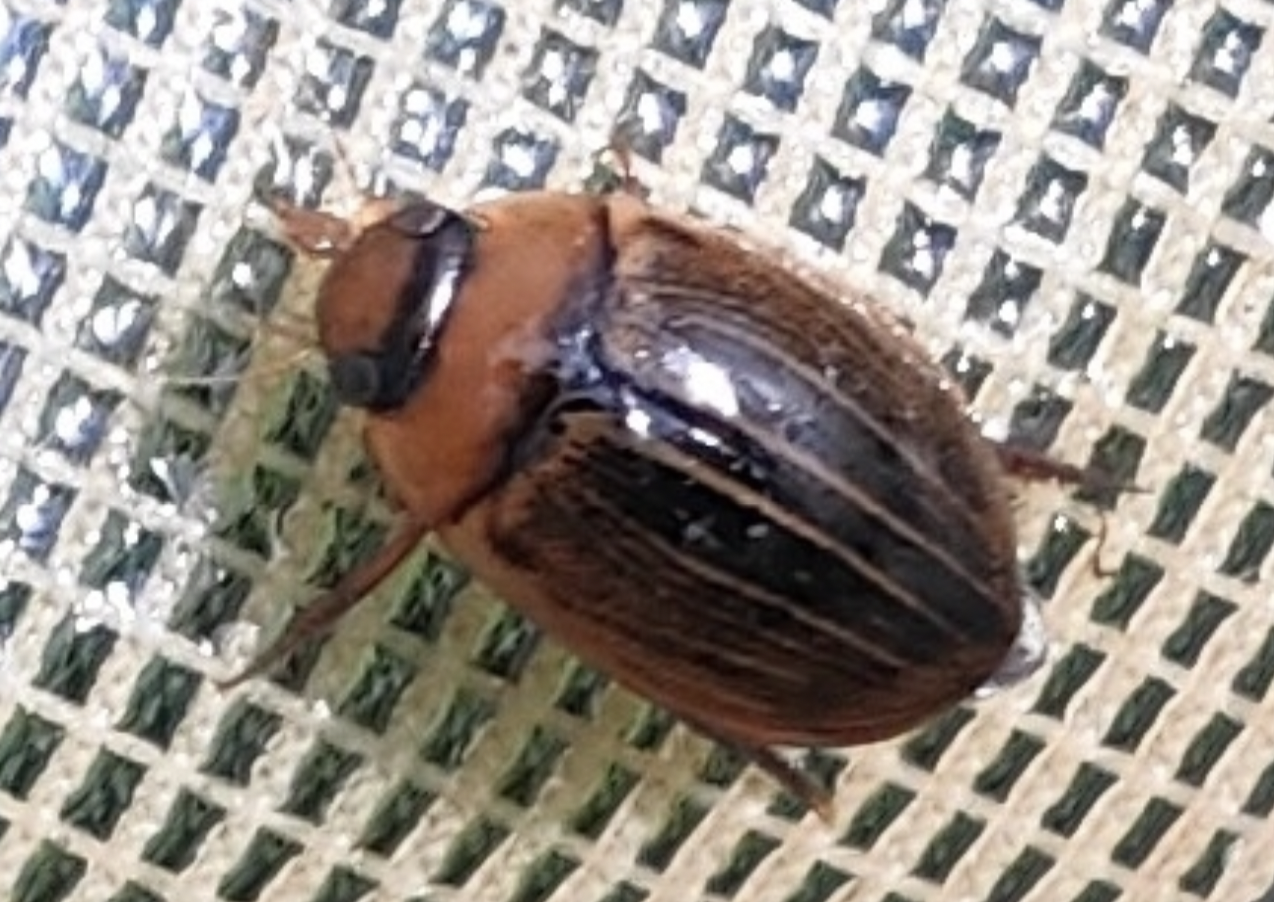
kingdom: Animalia
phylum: Arthropoda
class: Insecta
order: Coleoptera
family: Dytiscidae
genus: Hydaticus
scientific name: Hydaticus grammicus
